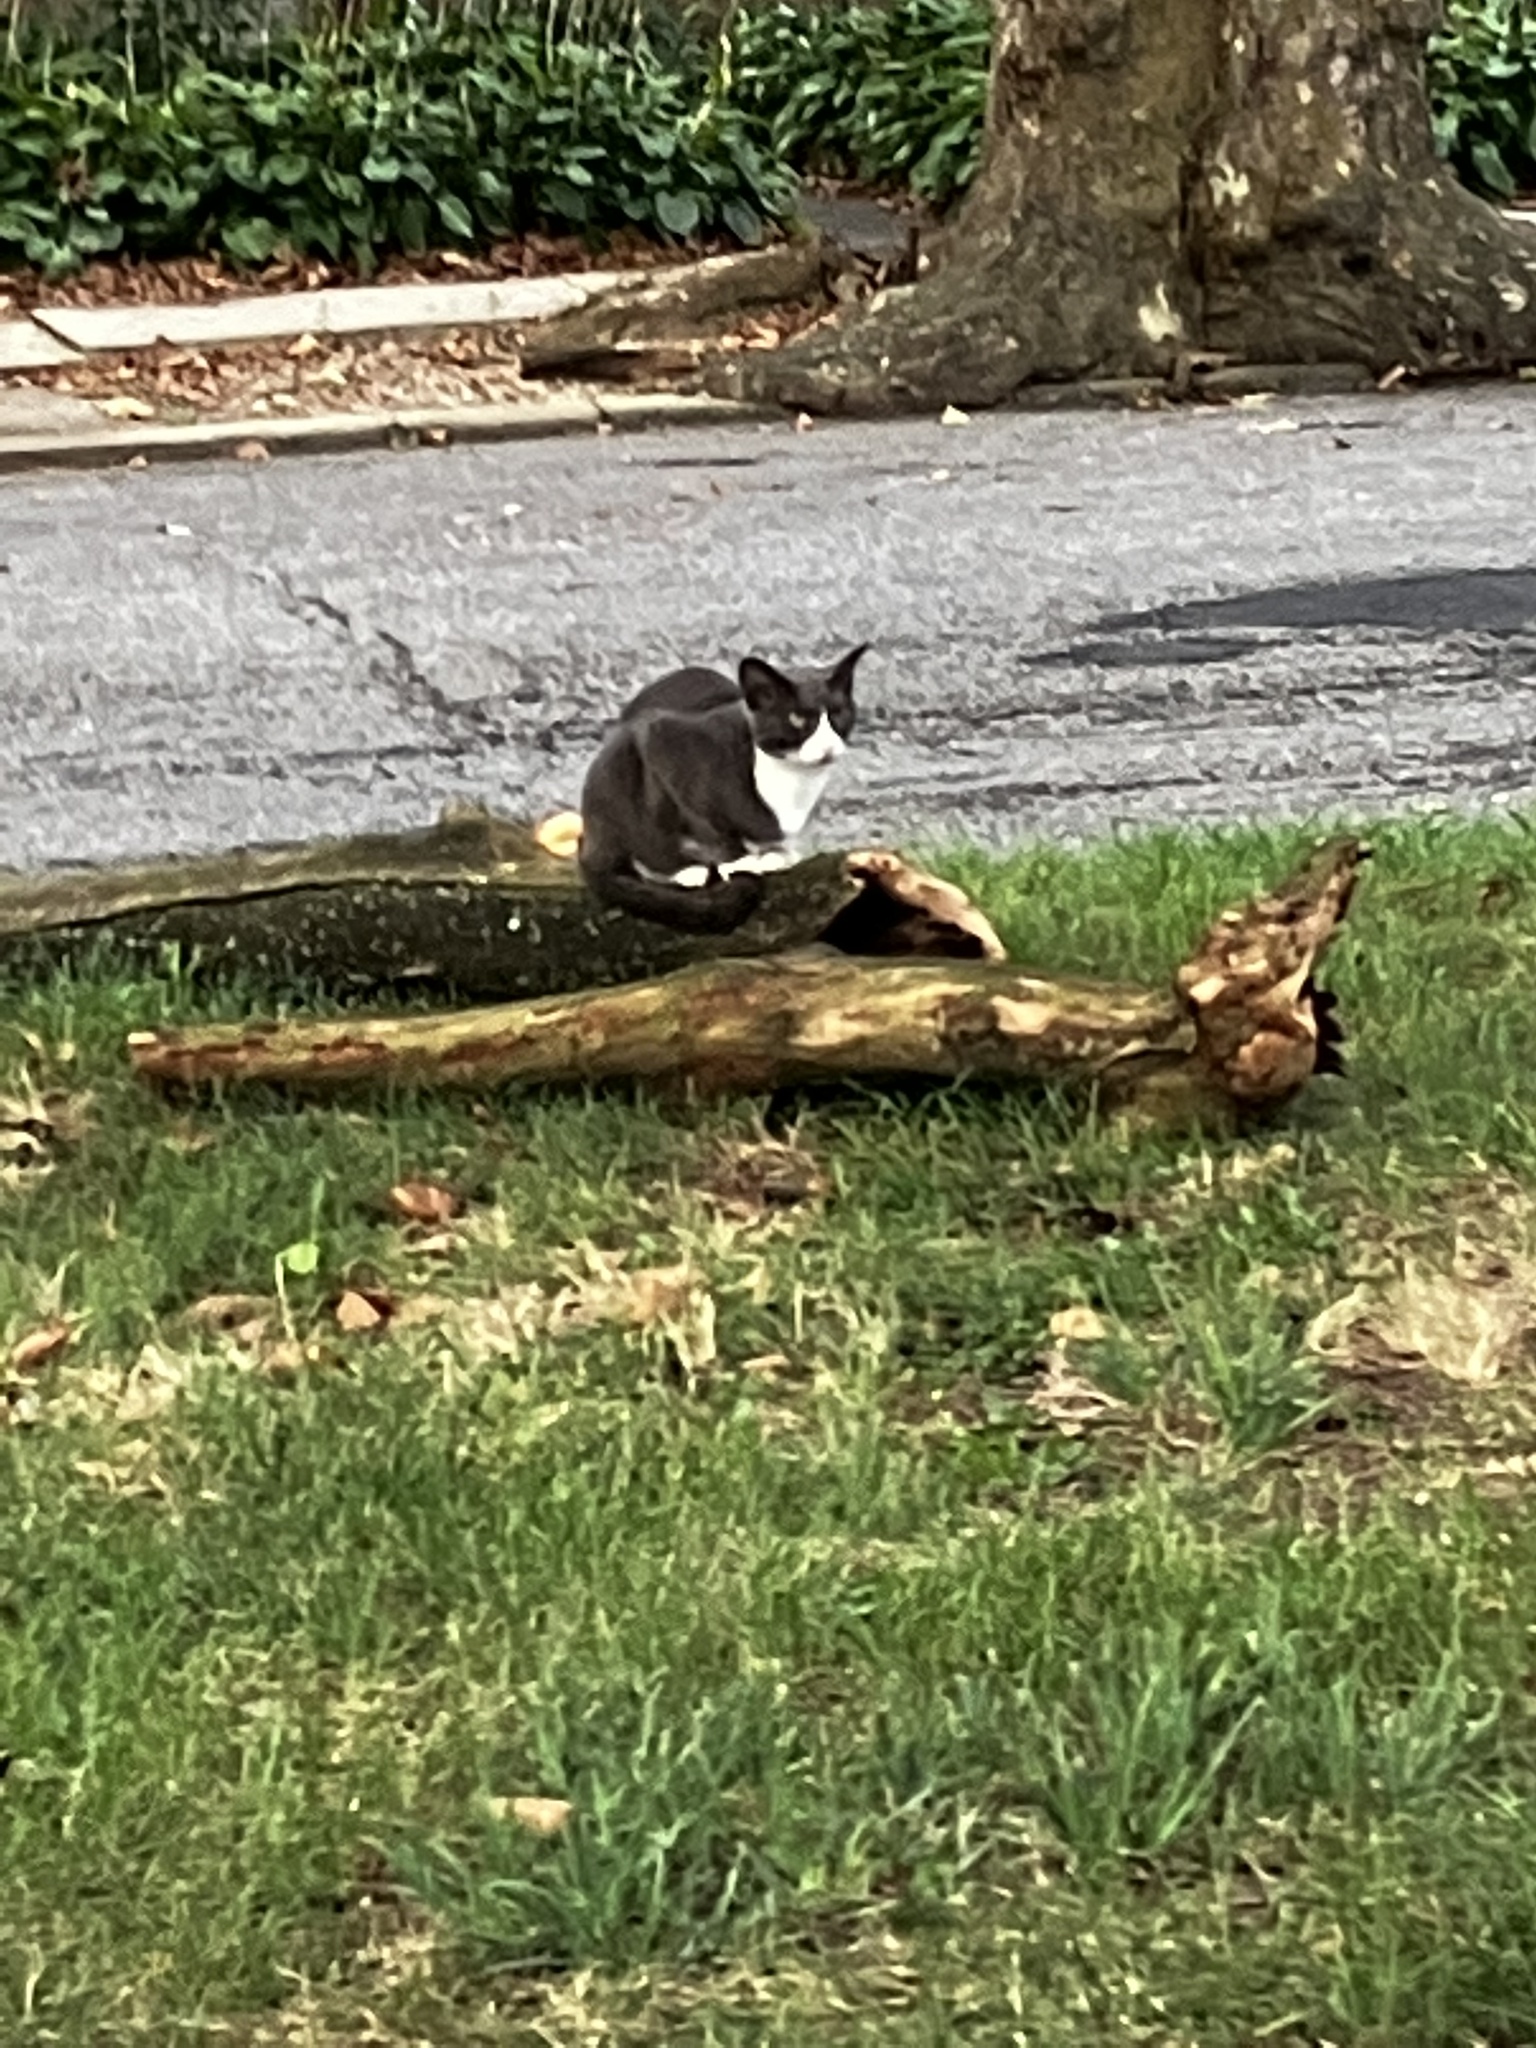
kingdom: Animalia
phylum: Chordata
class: Mammalia
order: Carnivora
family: Felidae
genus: Felis
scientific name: Felis catus
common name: Domestic cat
